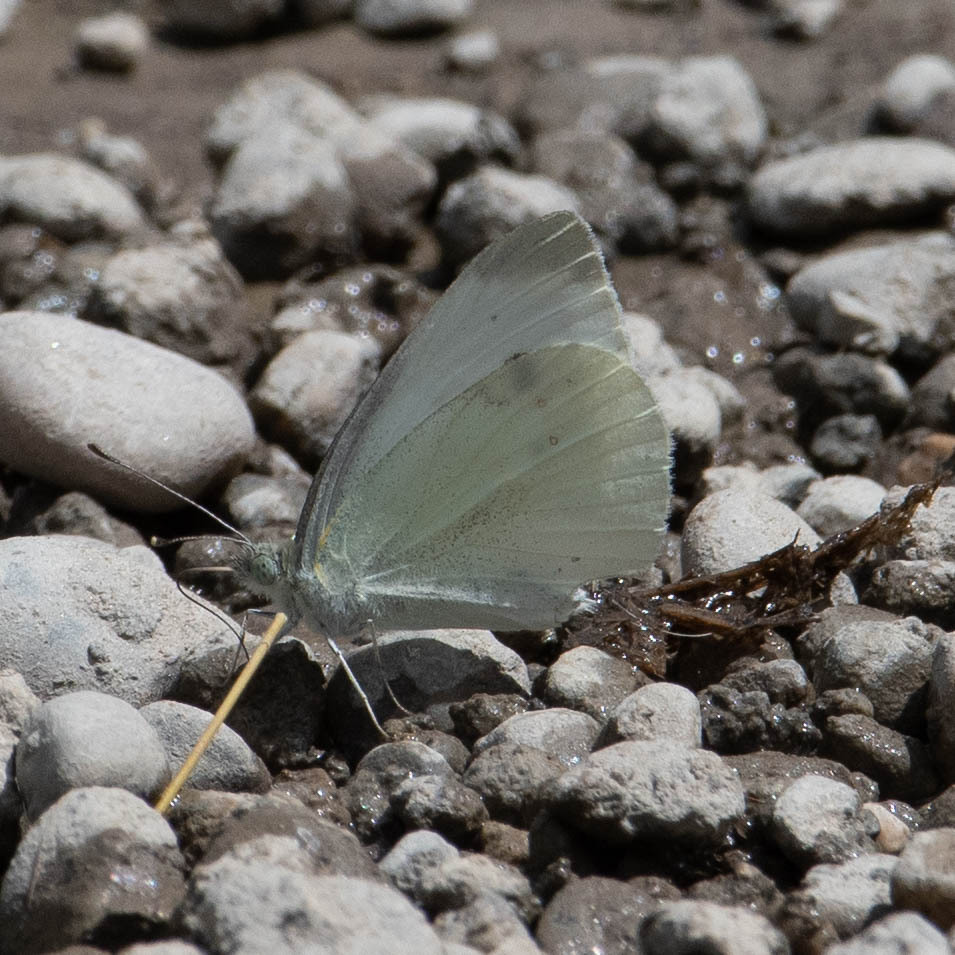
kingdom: Animalia
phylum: Arthropoda
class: Insecta
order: Lepidoptera
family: Pieridae
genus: Pieris
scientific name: Pieris rapae
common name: Small white
